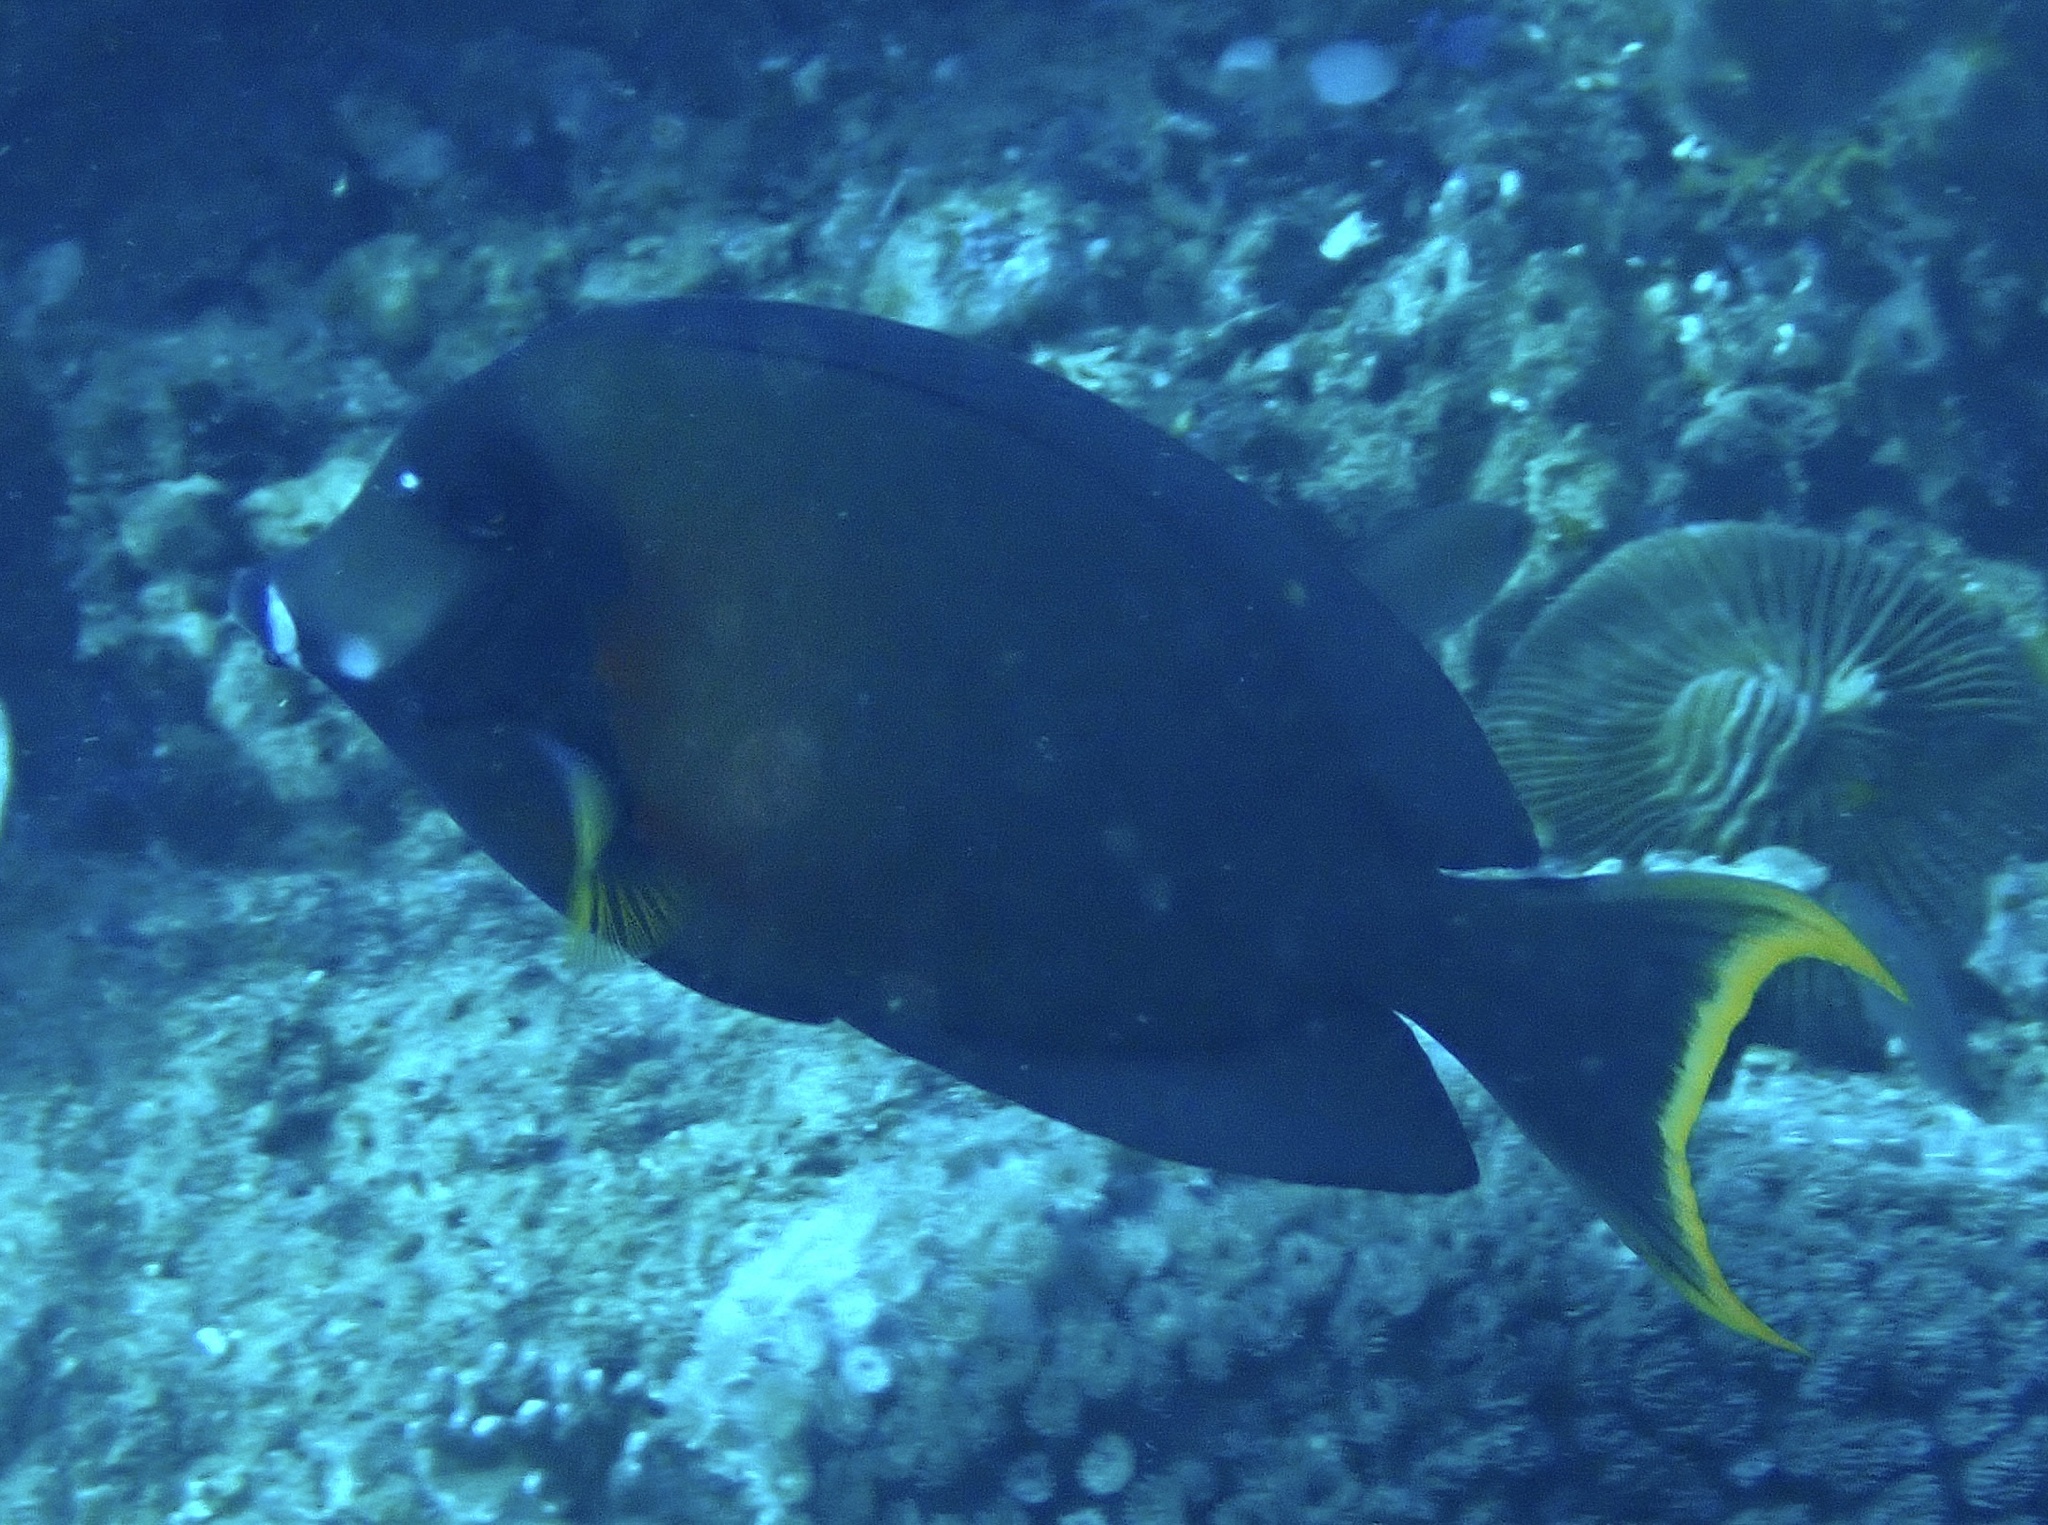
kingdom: Animalia
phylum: Chordata
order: Perciformes
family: Acanthuridae
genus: Acanthurus
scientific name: Acanthurus pyroferus
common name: Chocolate surgeonfish
